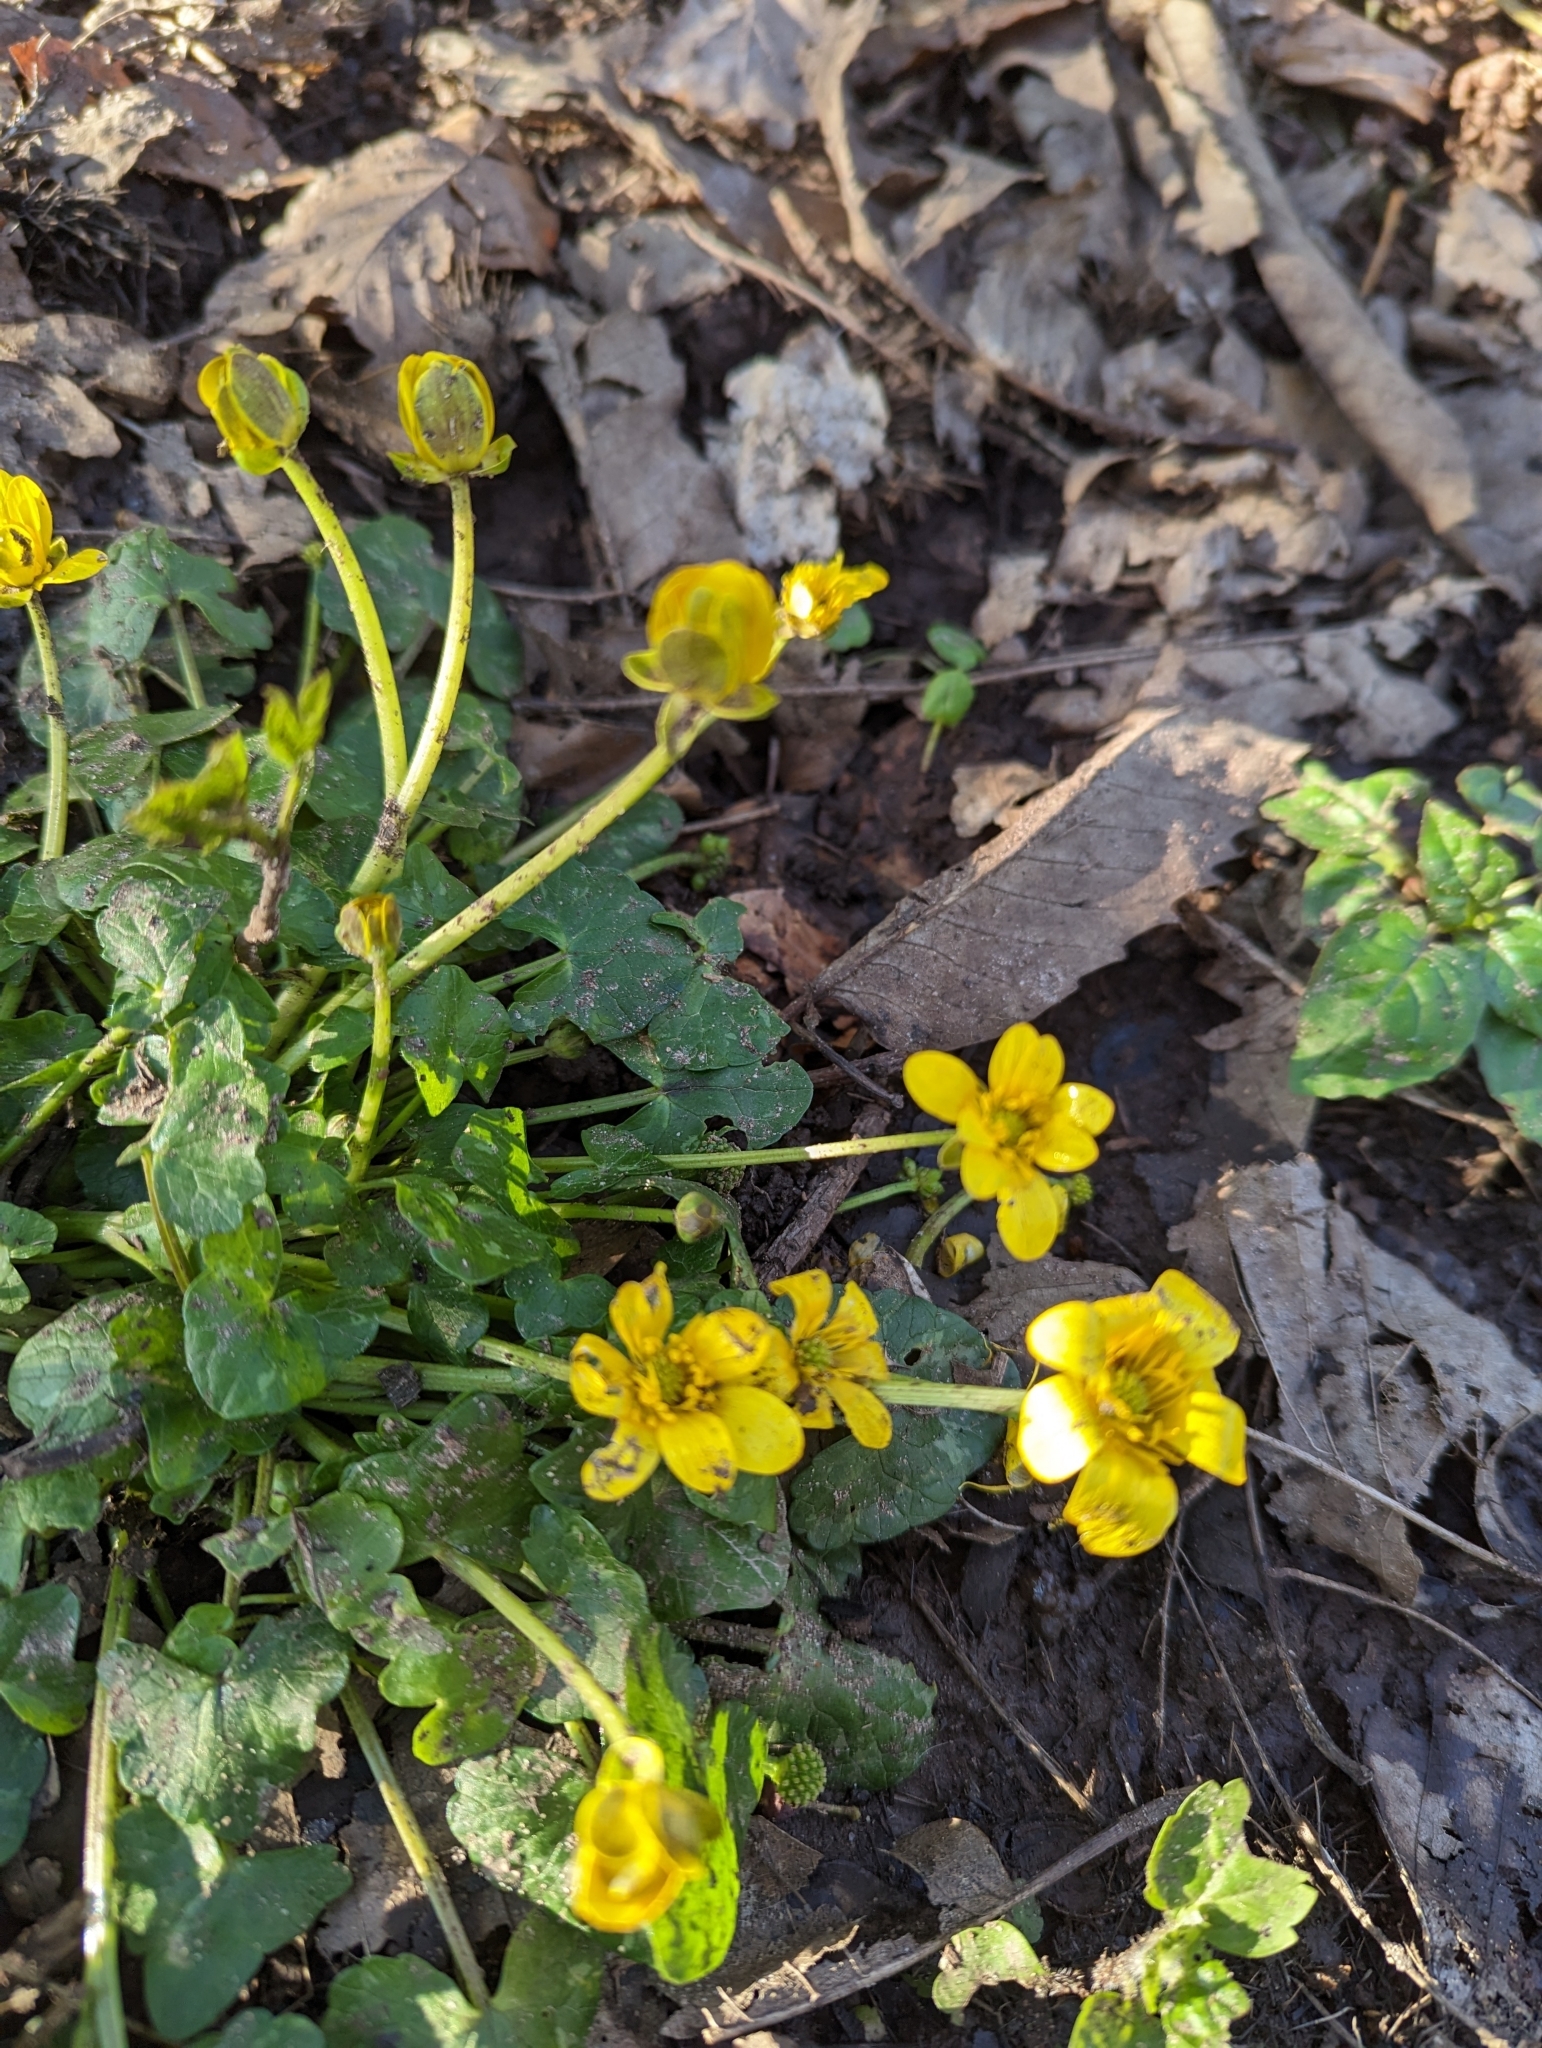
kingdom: Plantae
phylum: Tracheophyta
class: Magnoliopsida
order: Ranunculales
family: Ranunculaceae
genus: Caltha
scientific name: Caltha palustris
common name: Marsh marigold
